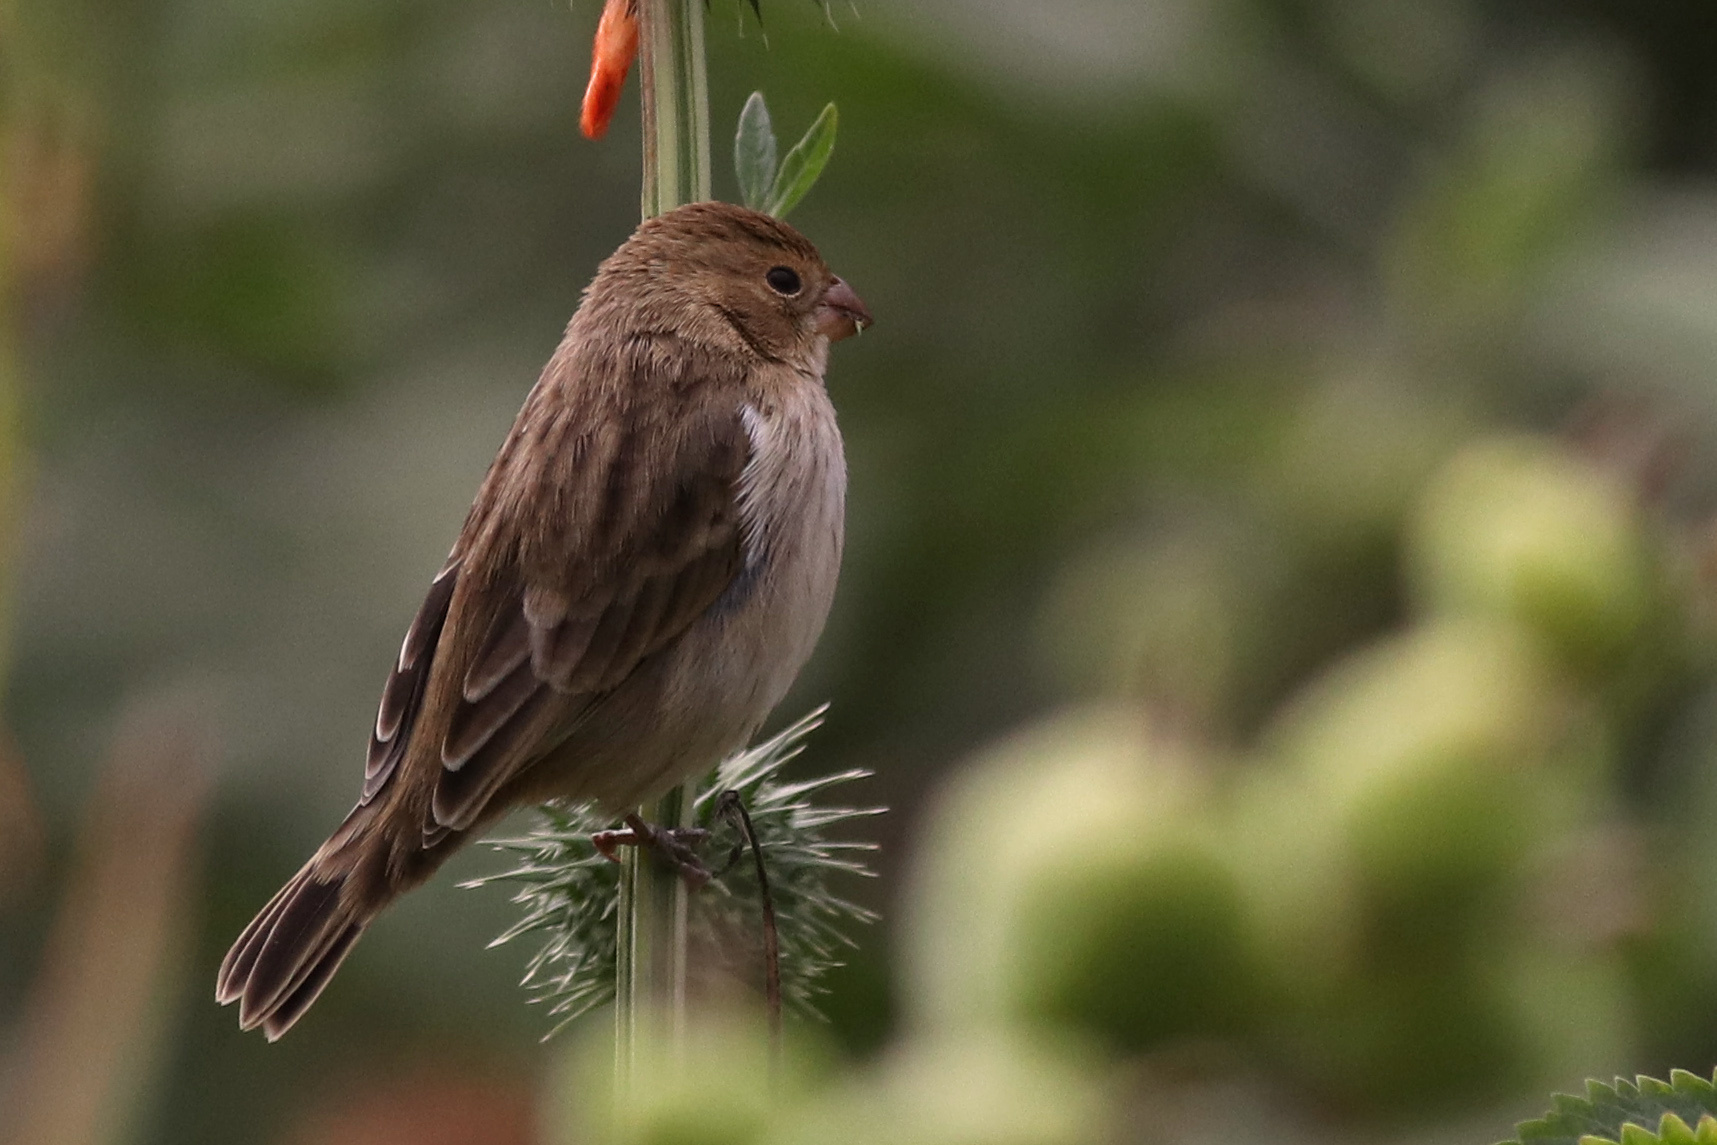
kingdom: Animalia
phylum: Chordata
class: Aves
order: Passeriformes
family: Thraupidae
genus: Sporophila
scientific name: Sporophila telasco
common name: Chestnut-throated seedeater
